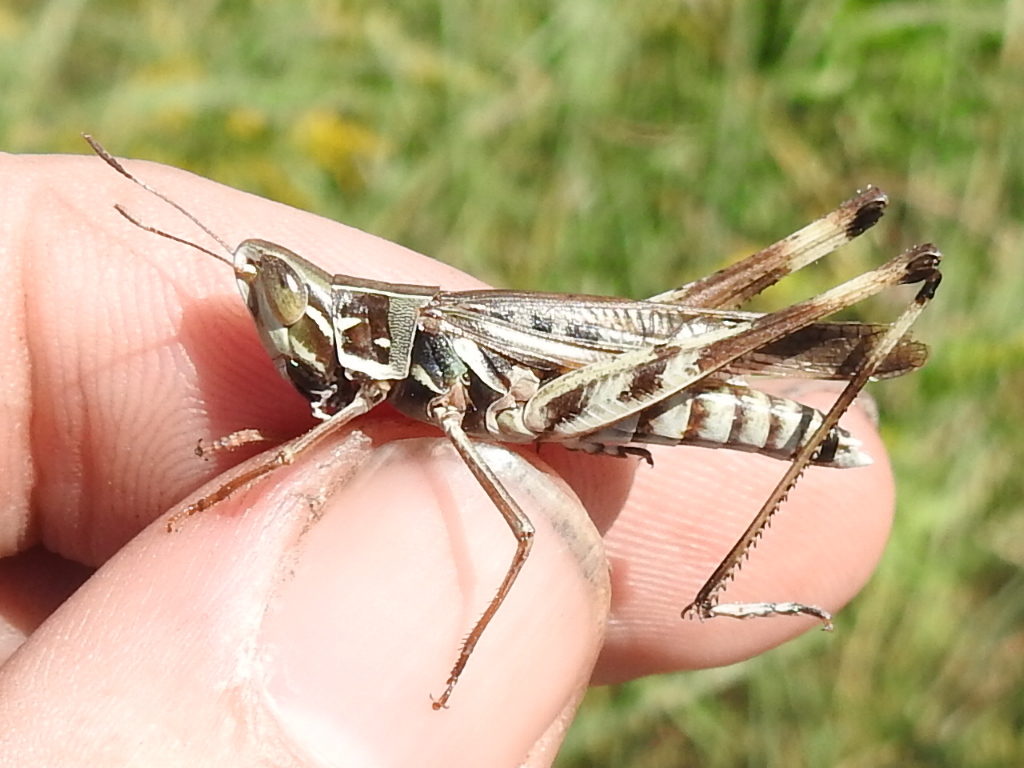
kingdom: Animalia
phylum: Arthropoda
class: Insecta
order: Orthoptera
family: Acrididae
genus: Syrbula
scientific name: Syrbula admirabilis
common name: Handsome grasshopper
